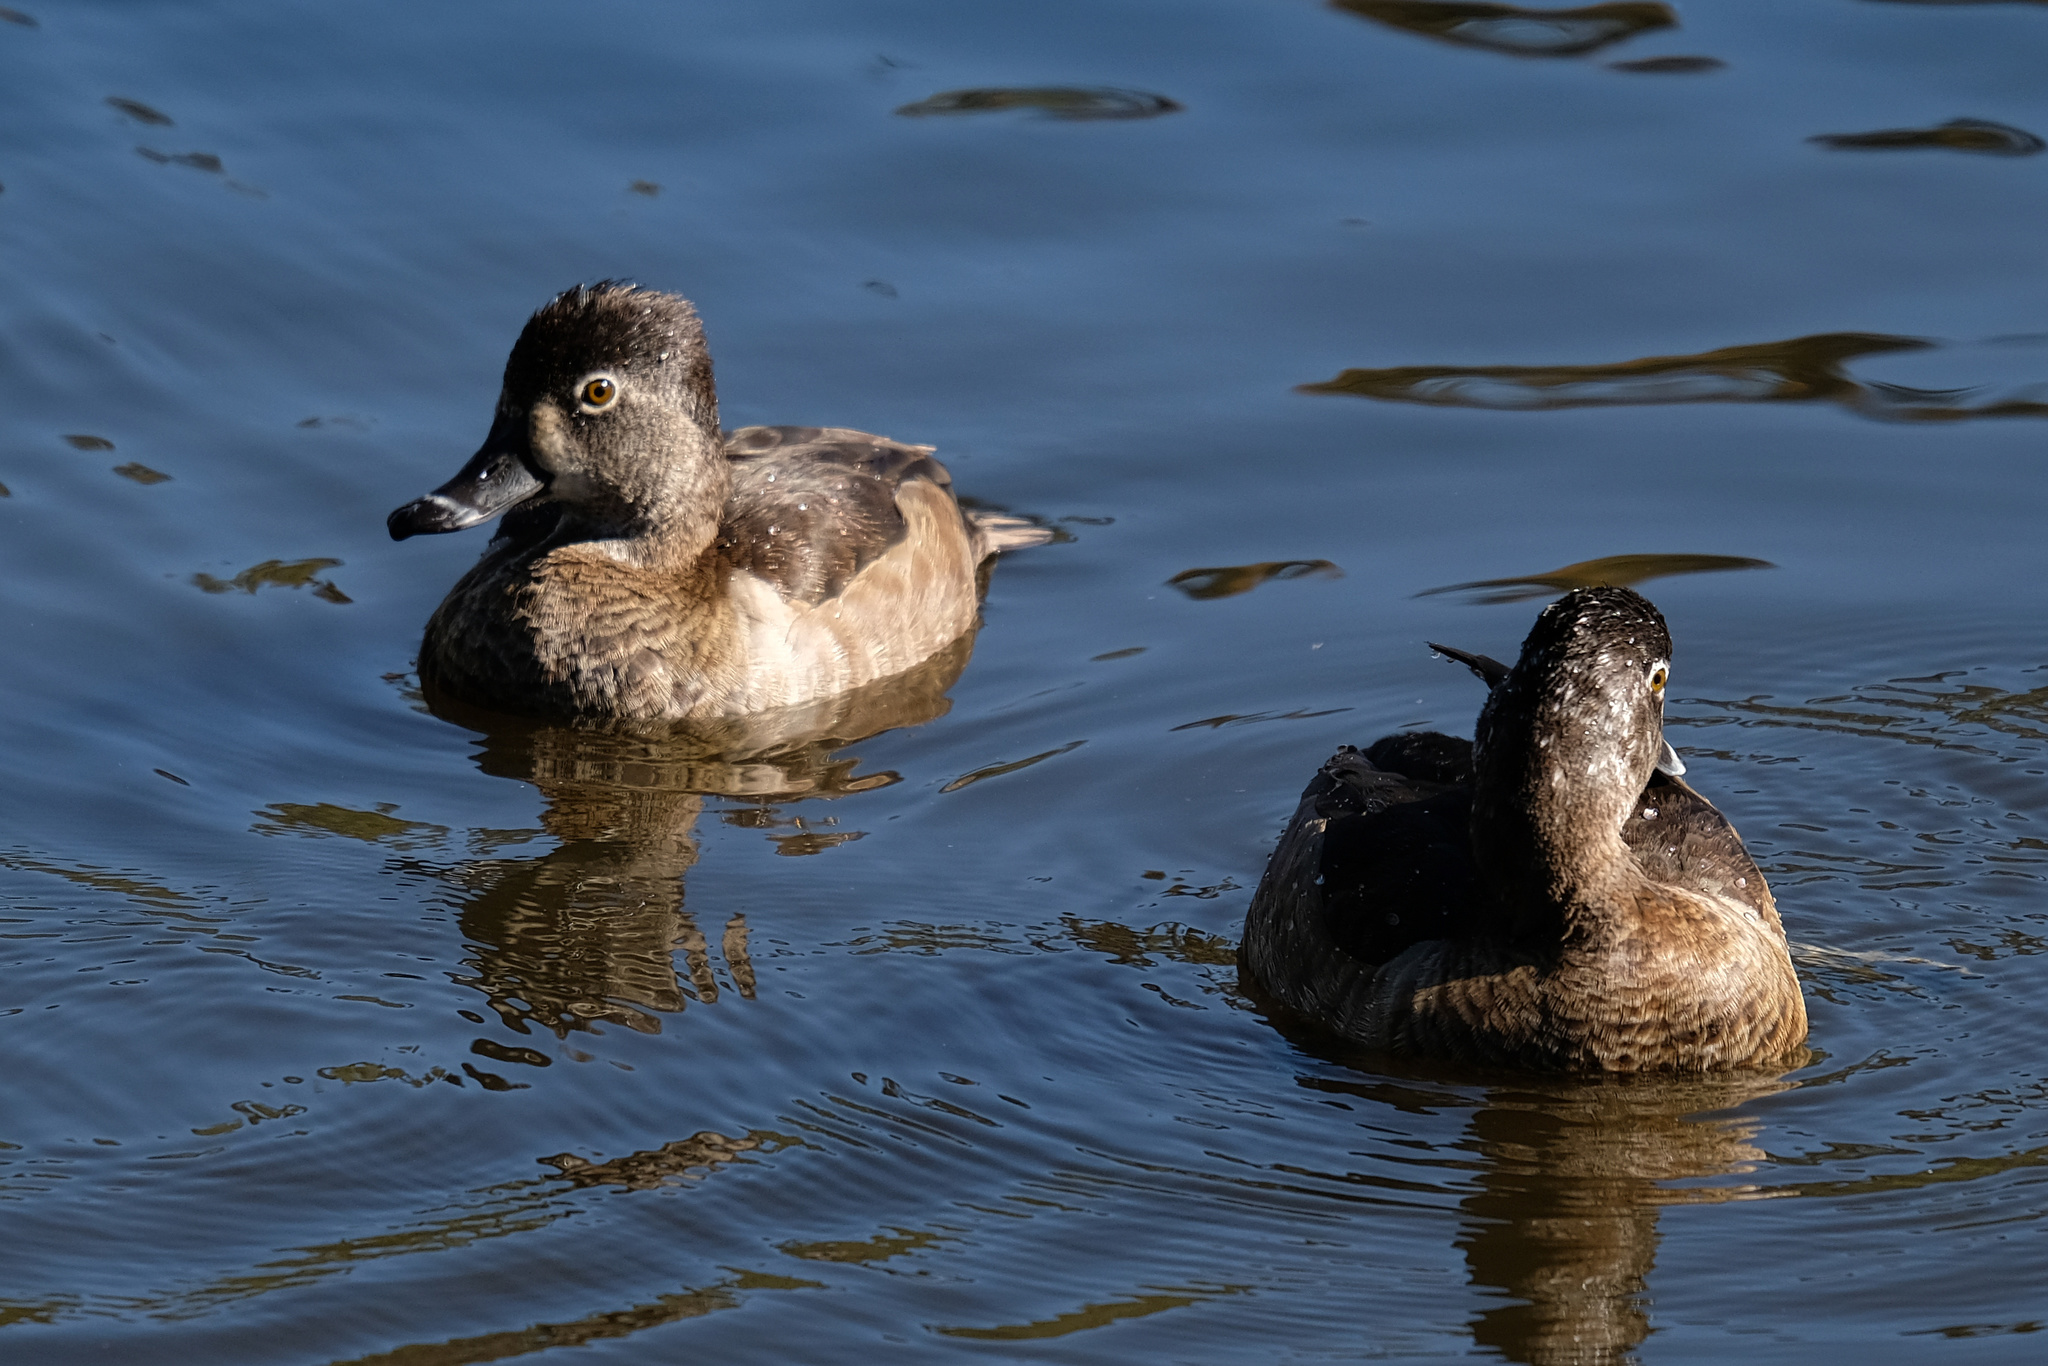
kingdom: Animalia
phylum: Chordata
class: Aves
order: Anseriformes
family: Anatidae
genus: Aythya
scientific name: Aythya collaris
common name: Ring-necked duck
